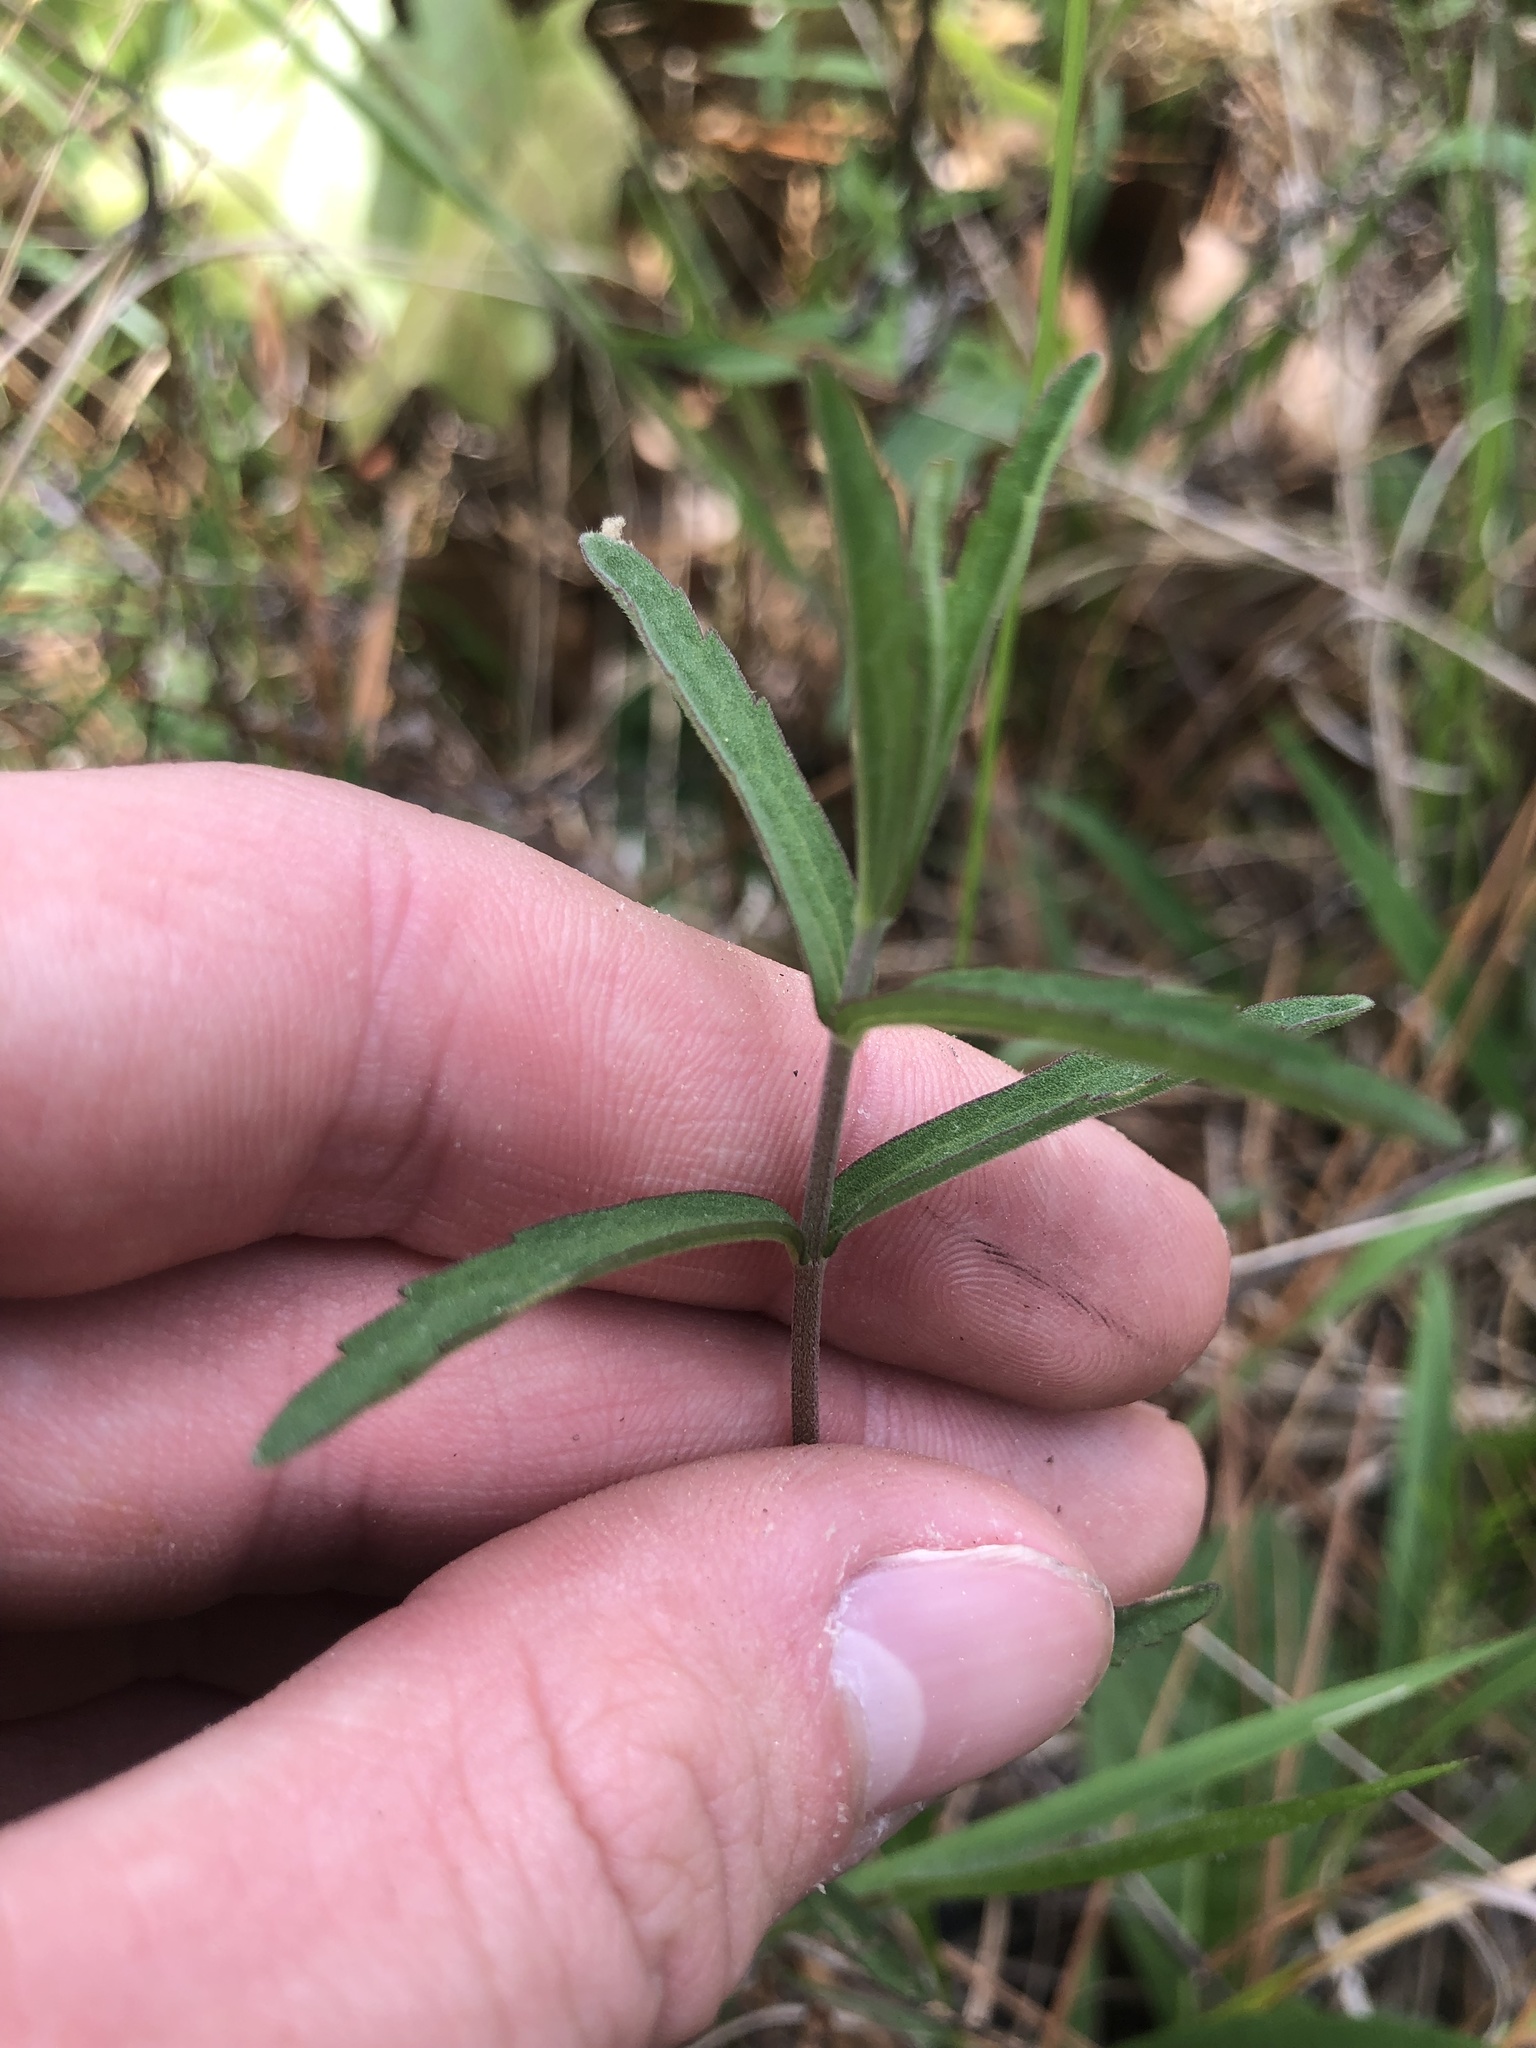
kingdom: Plantae
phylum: Tracheophyta
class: Magnoliopsida
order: Asterales
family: Asteraceae
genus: Eupatorium
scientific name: Eupatorium leucolepis
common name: Justiceweed
